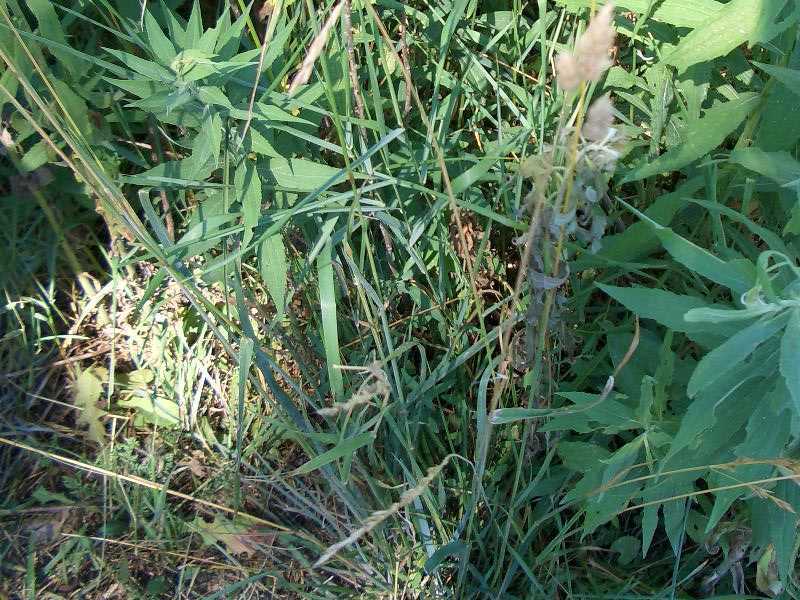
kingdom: Plantae
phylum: Tracheophyta
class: Liliopsida
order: Poales
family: Poaceae
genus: Dactylis
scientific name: Dactylis glomerata
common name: Orchardgrass
